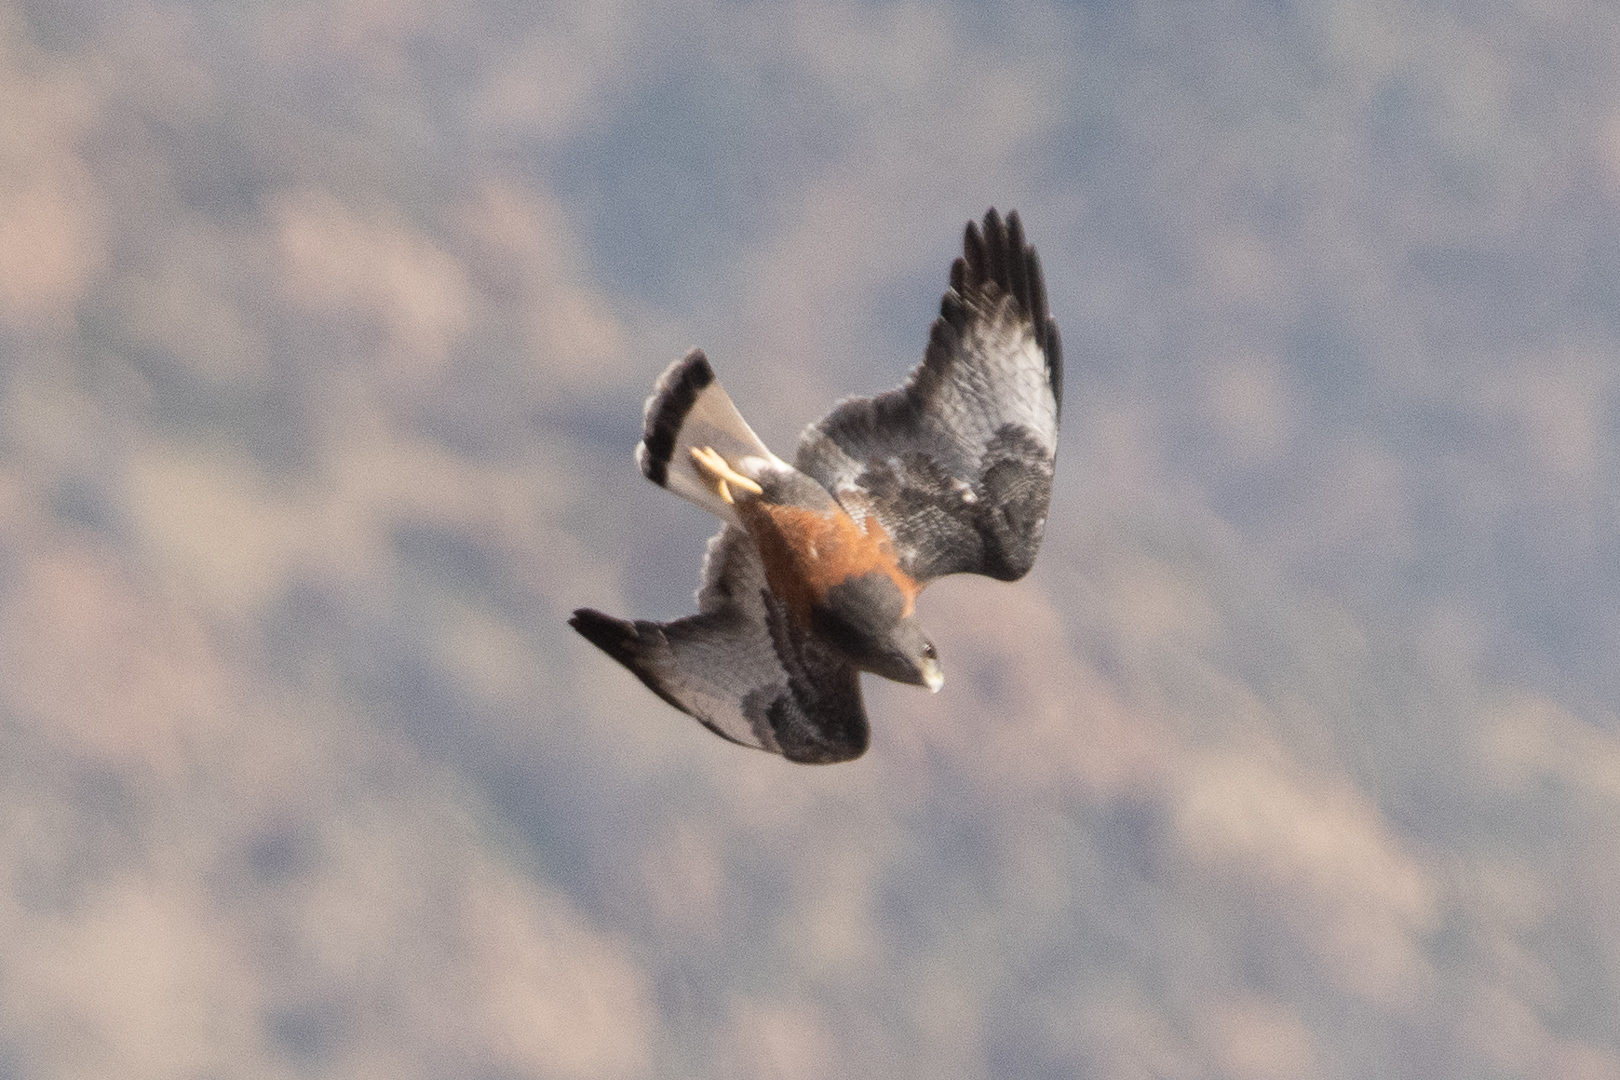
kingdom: Animalia
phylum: Chordata
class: Aves
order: Accipitriformes
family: Accipitridae
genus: Buteo
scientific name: Buteo polyosoma
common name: Variable hawk
